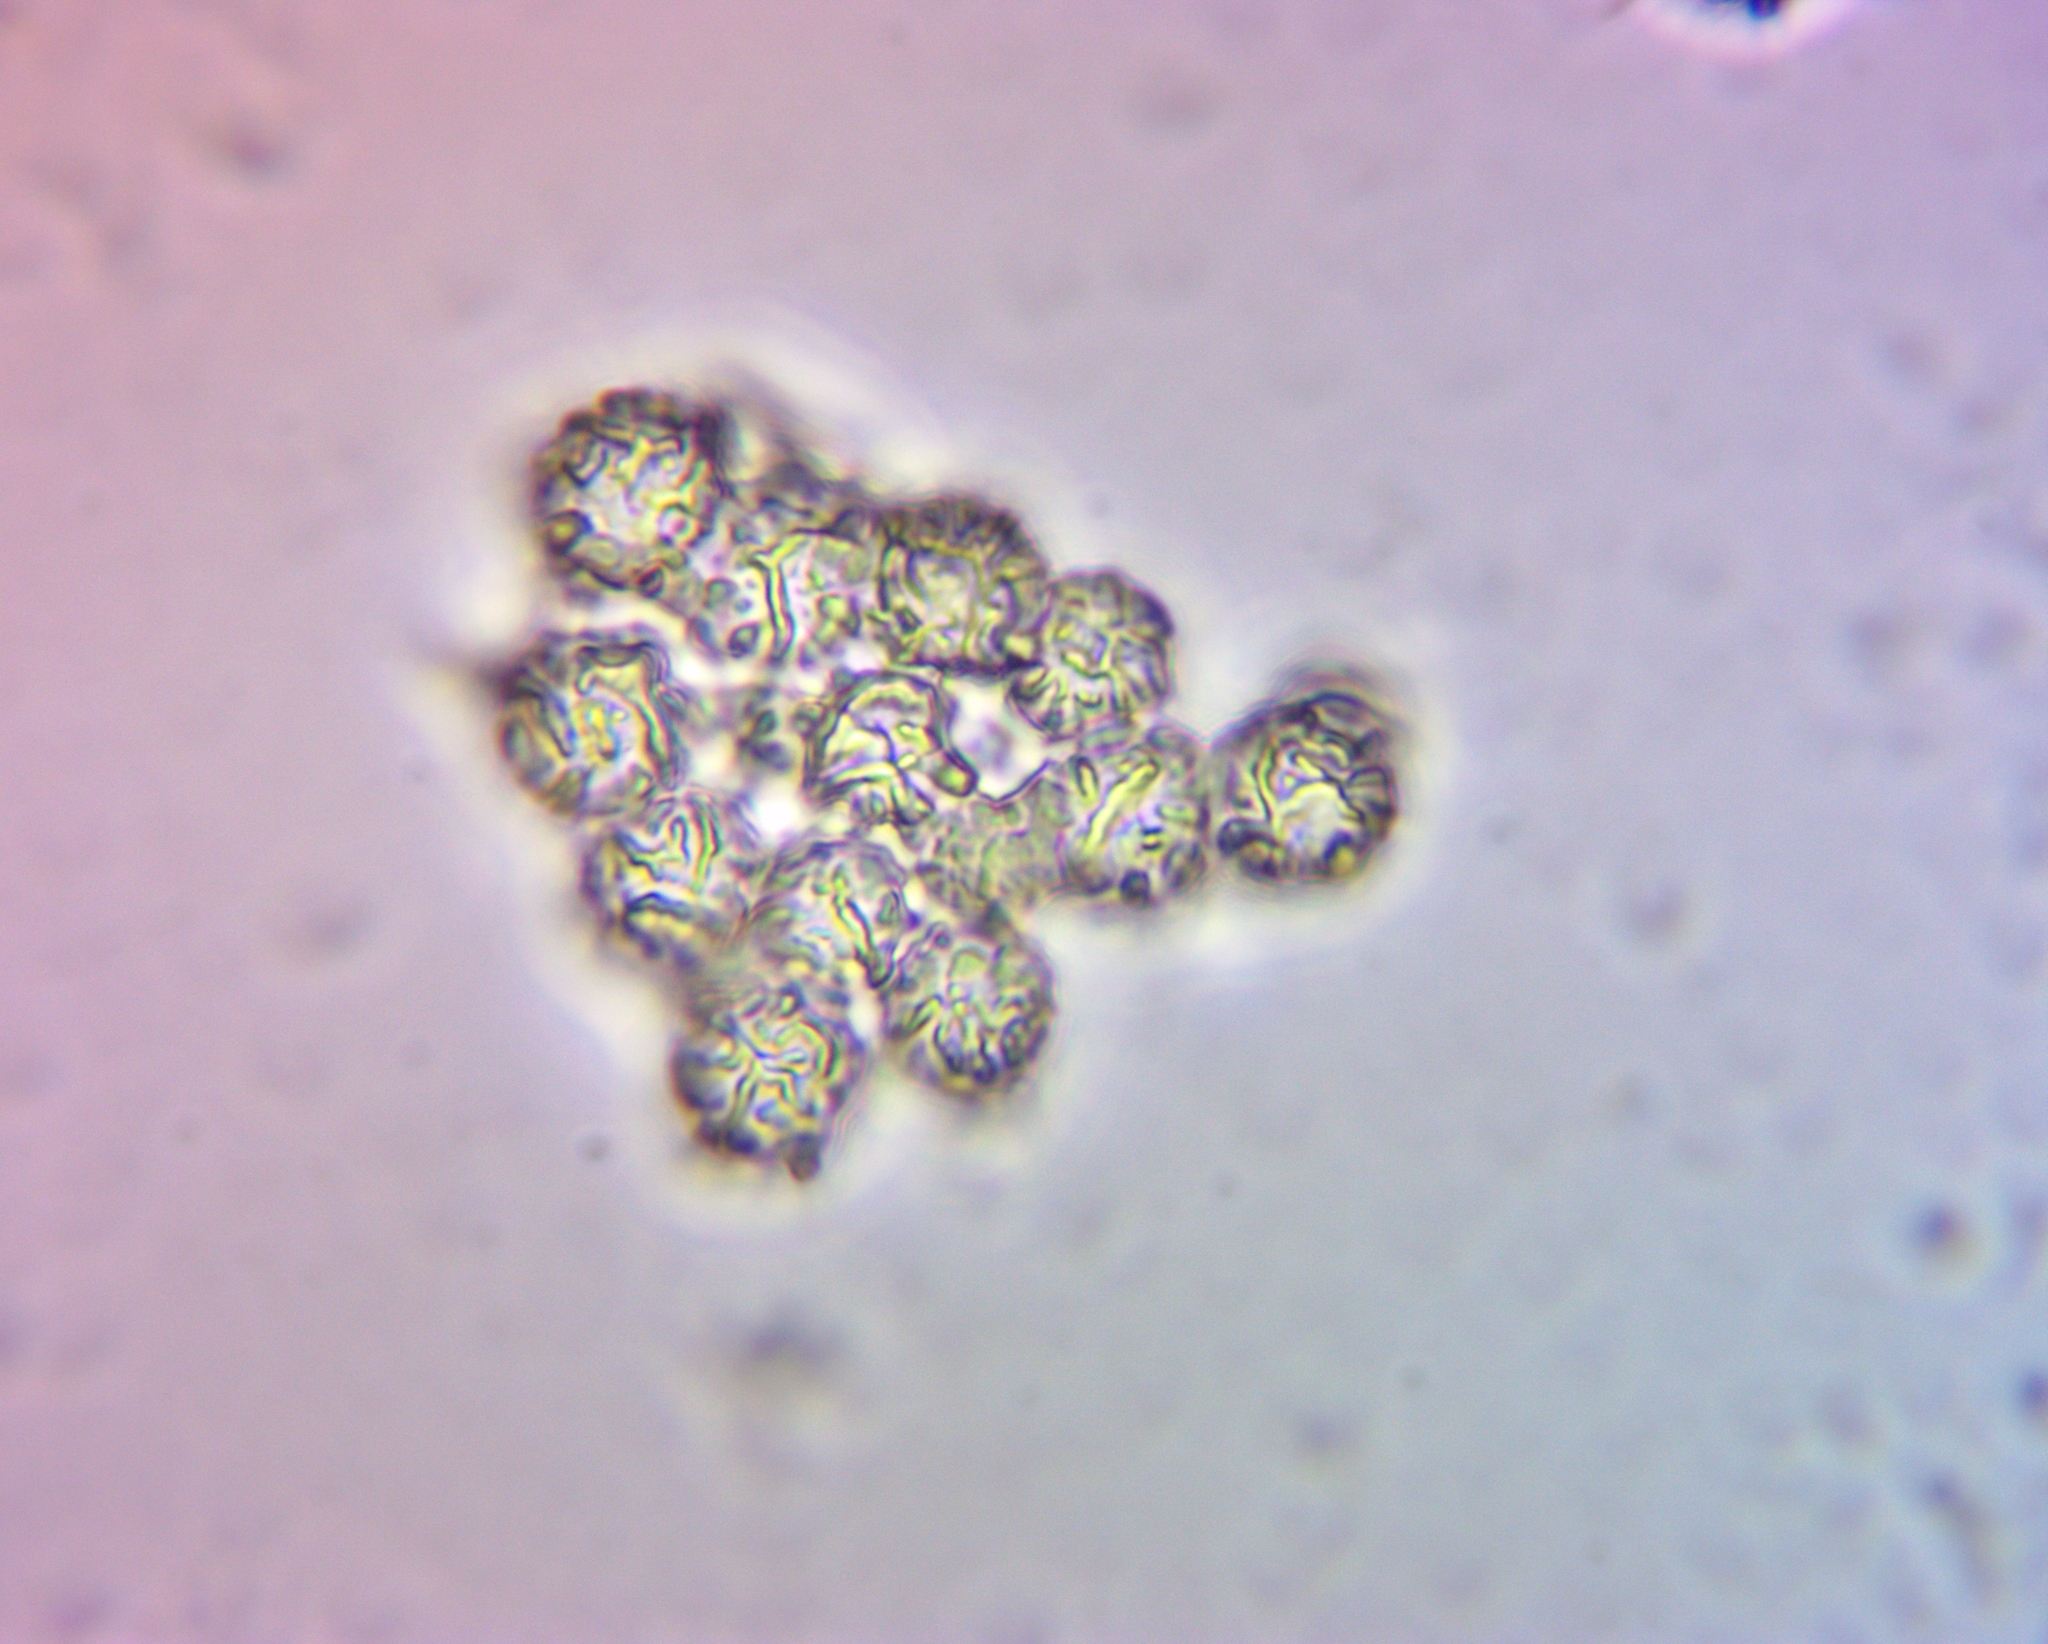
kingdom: Fungi
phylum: Basidiomycota
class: Agaricomycetes
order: Russulales
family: Russulaceae
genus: Russula
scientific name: Russula grata
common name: Bitter almond brittlegill
